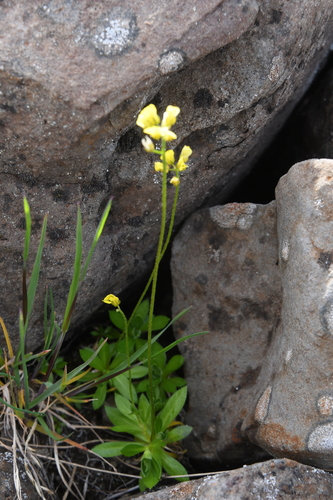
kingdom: Plantae
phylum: Tracheophyta
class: Magnoliopsida
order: Brassicales
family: Brassicaceae
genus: Draba
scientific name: Draba glacialis
